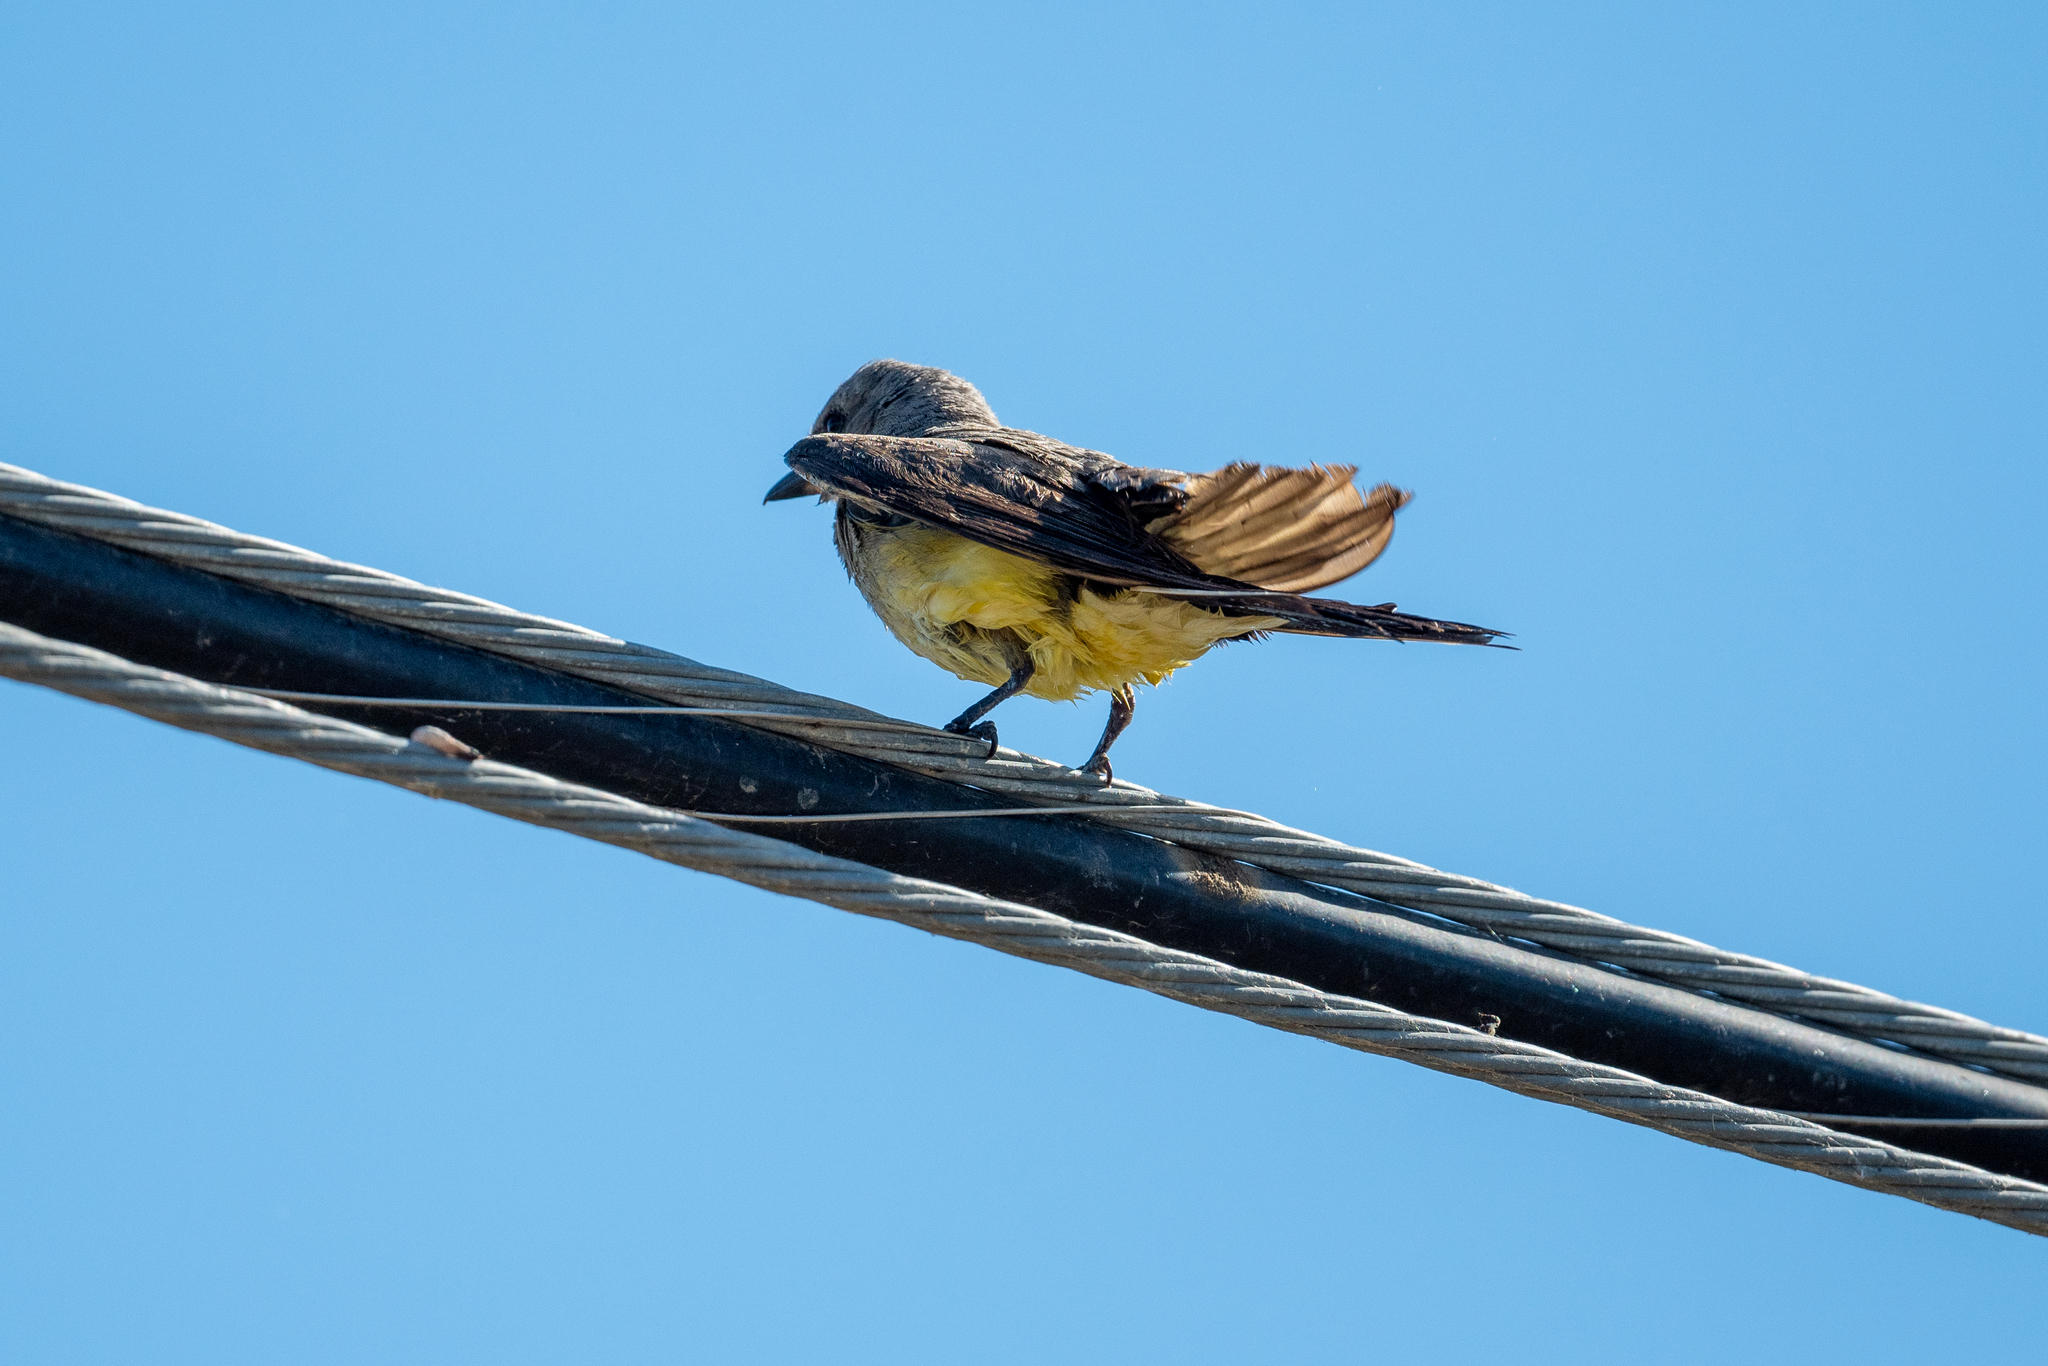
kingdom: Animalia
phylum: Chordata
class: Aves
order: Passeriformes
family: Tyrannidae
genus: Tyrannus
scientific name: Tyrannus verticalis
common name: Western kingbird
